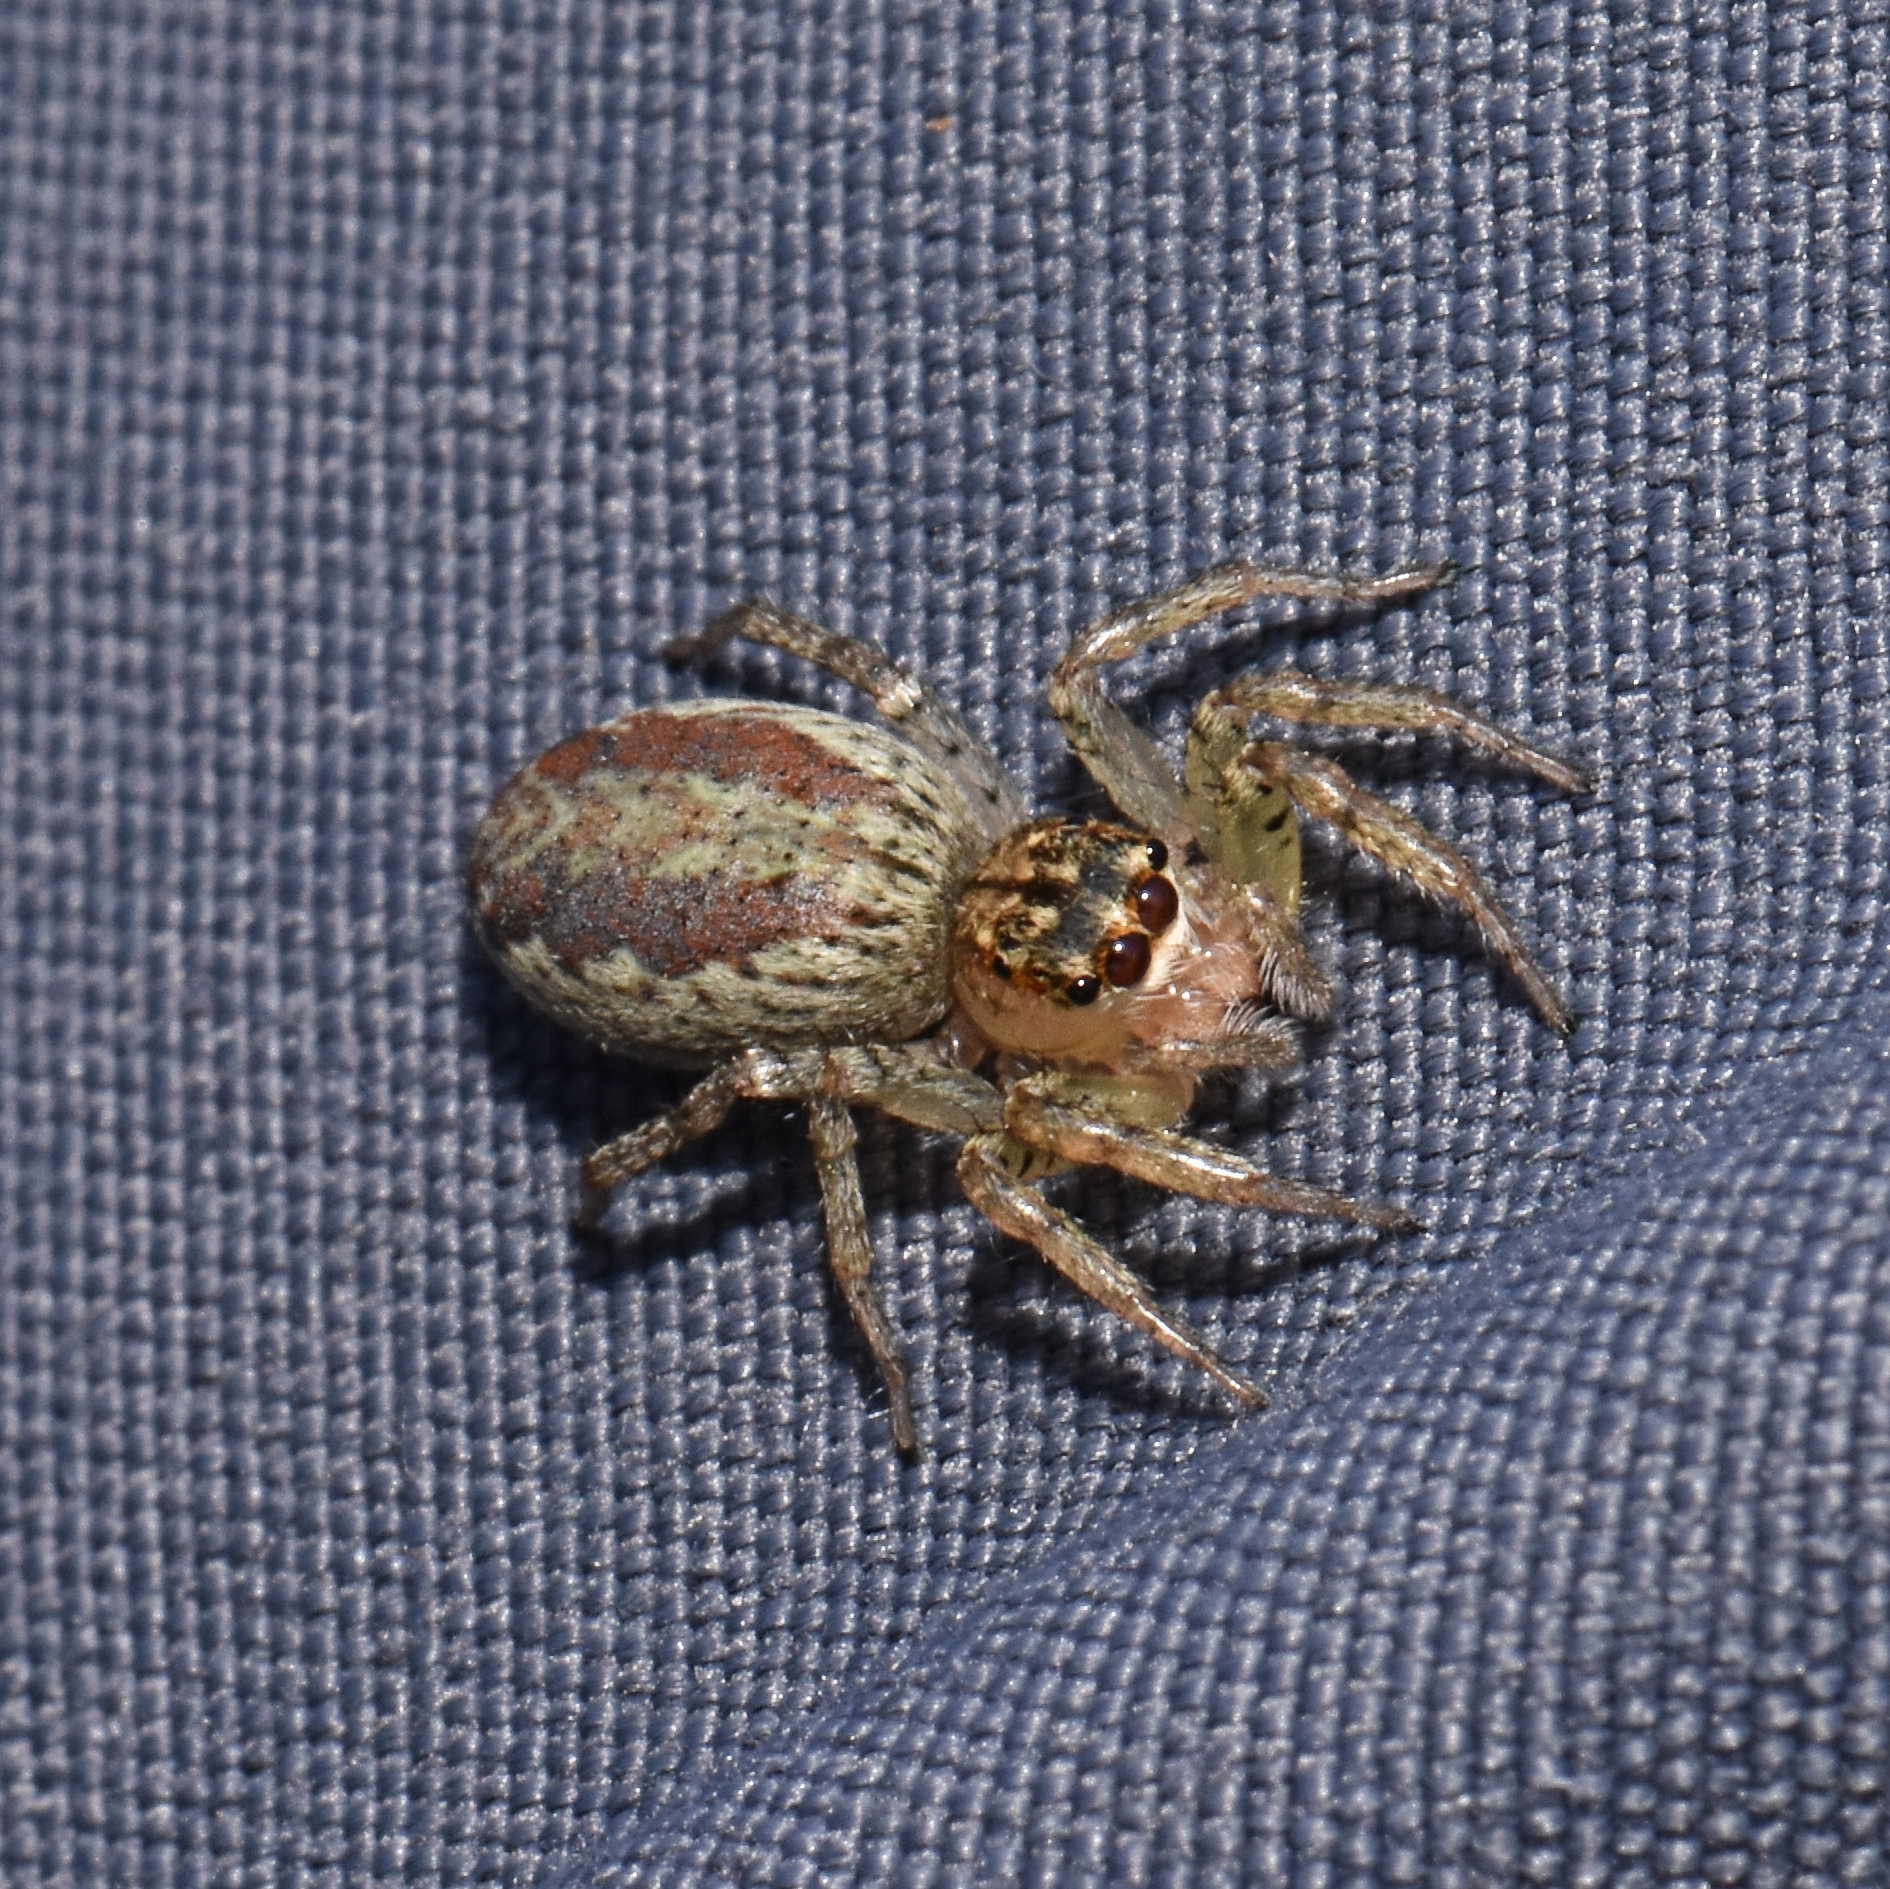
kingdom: Animalia
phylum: Arthropoda
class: Arachnida
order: Araneae
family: Salticidae
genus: Maevia
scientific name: Maevia inclemens
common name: Dimorphic jumper
